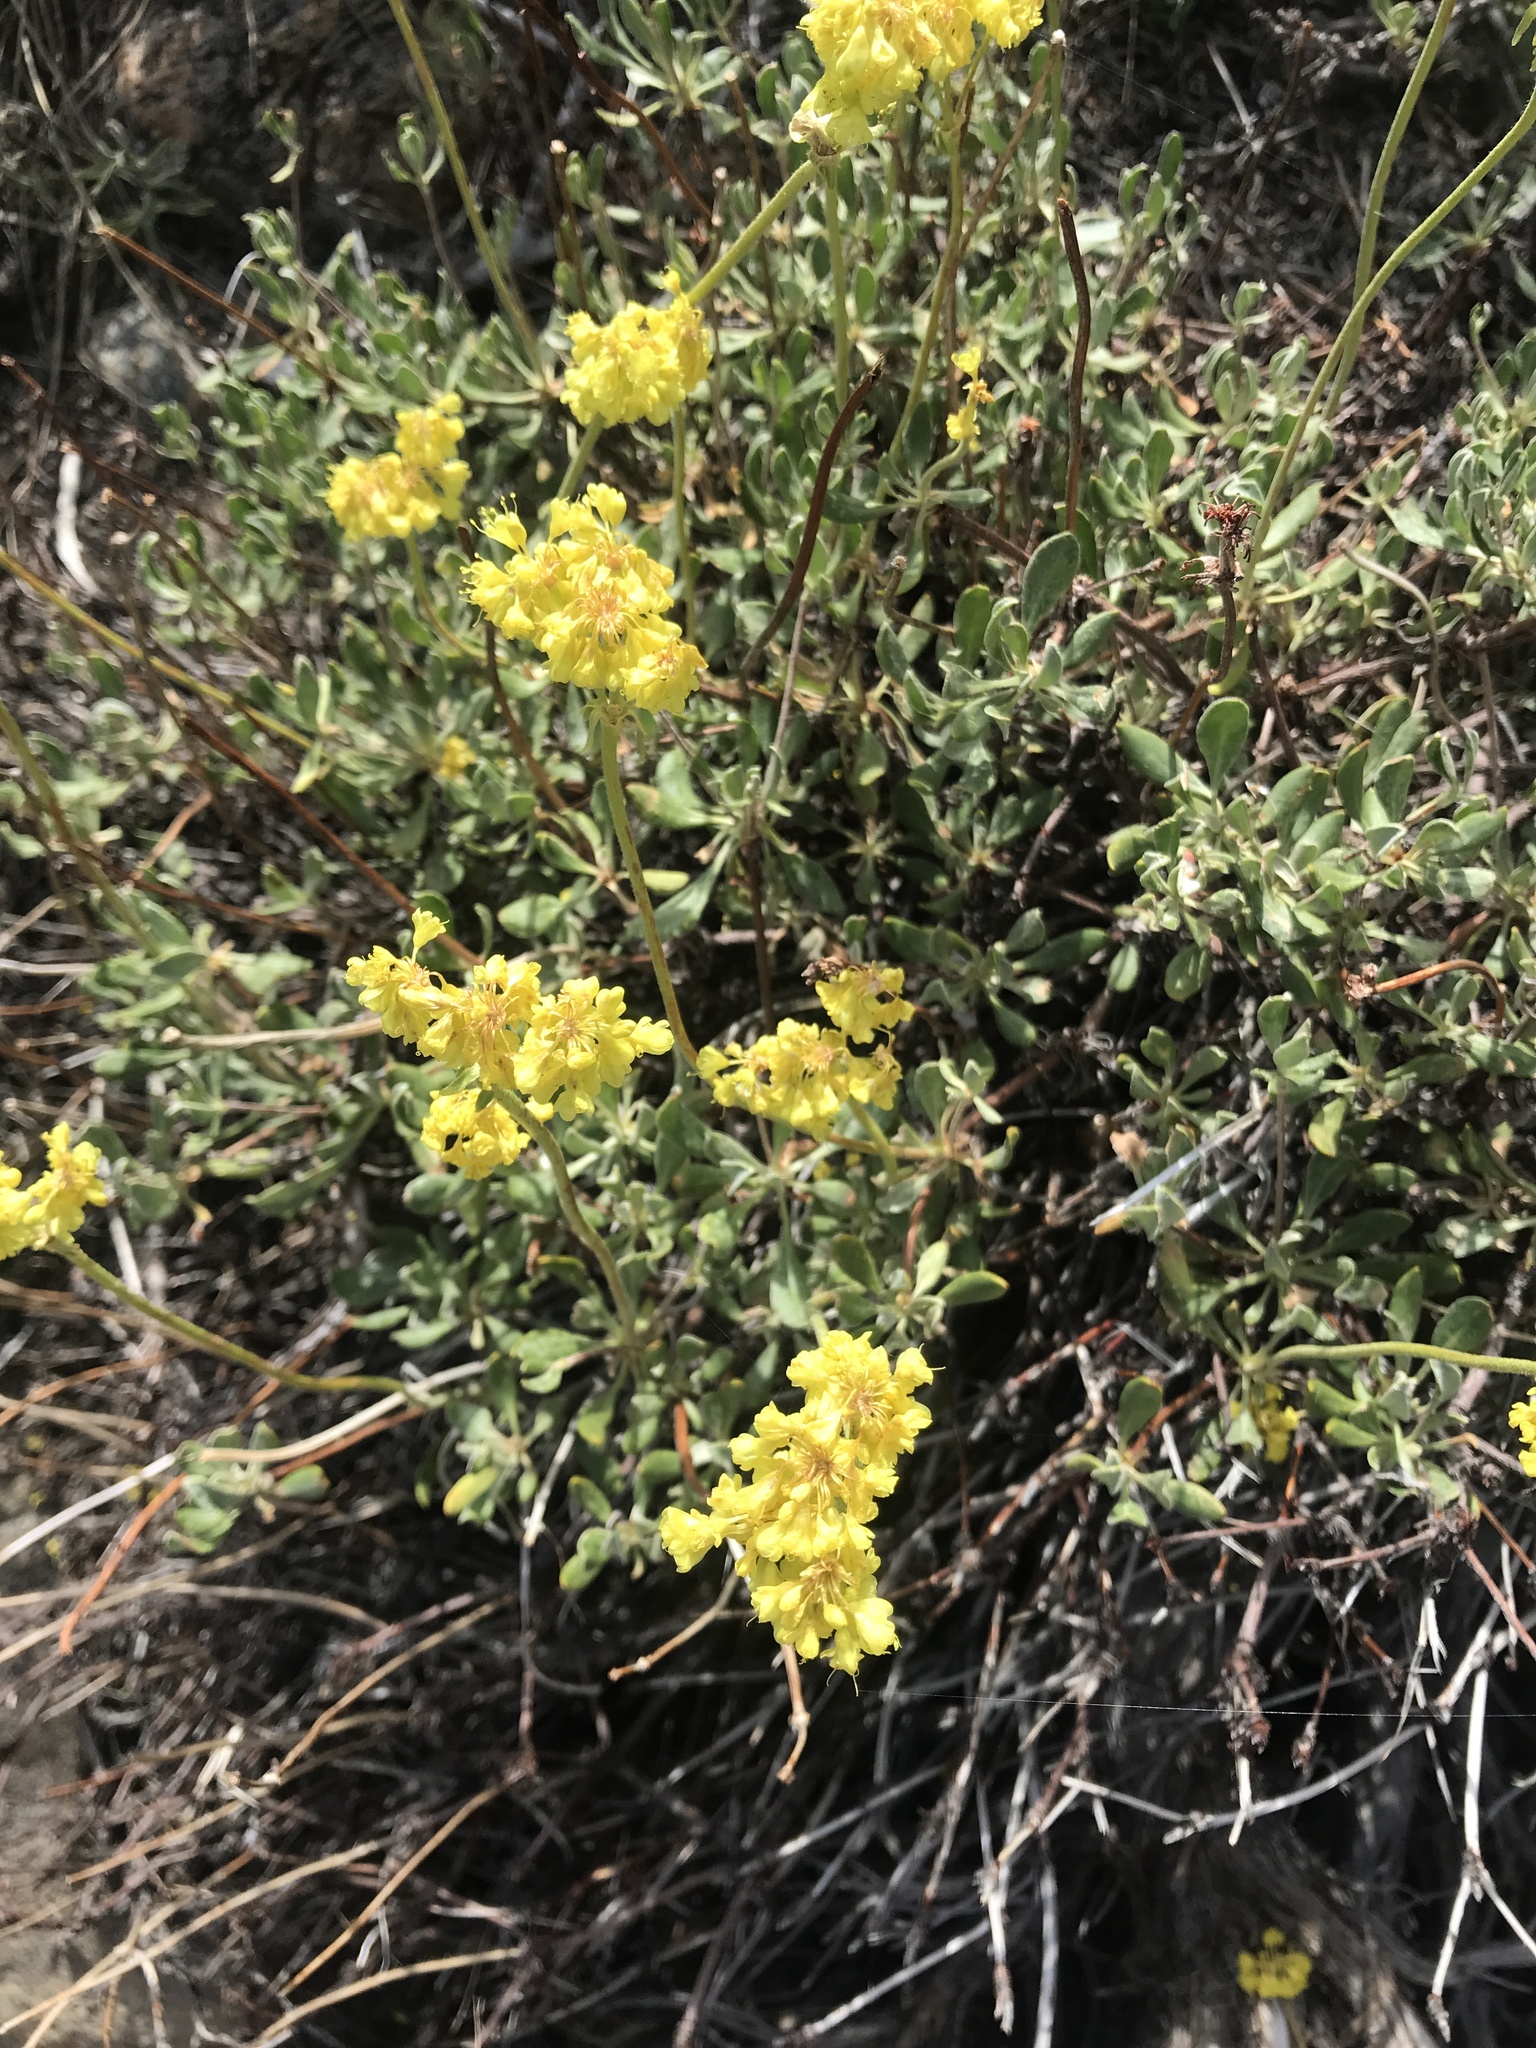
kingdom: Plantae
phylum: Tracheophyta
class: Magnoliopsida
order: Caryophyllales
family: Polygonaceae
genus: Eriogonum
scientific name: Eriogonum umbellatum
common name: Sulfur-buckwheat
